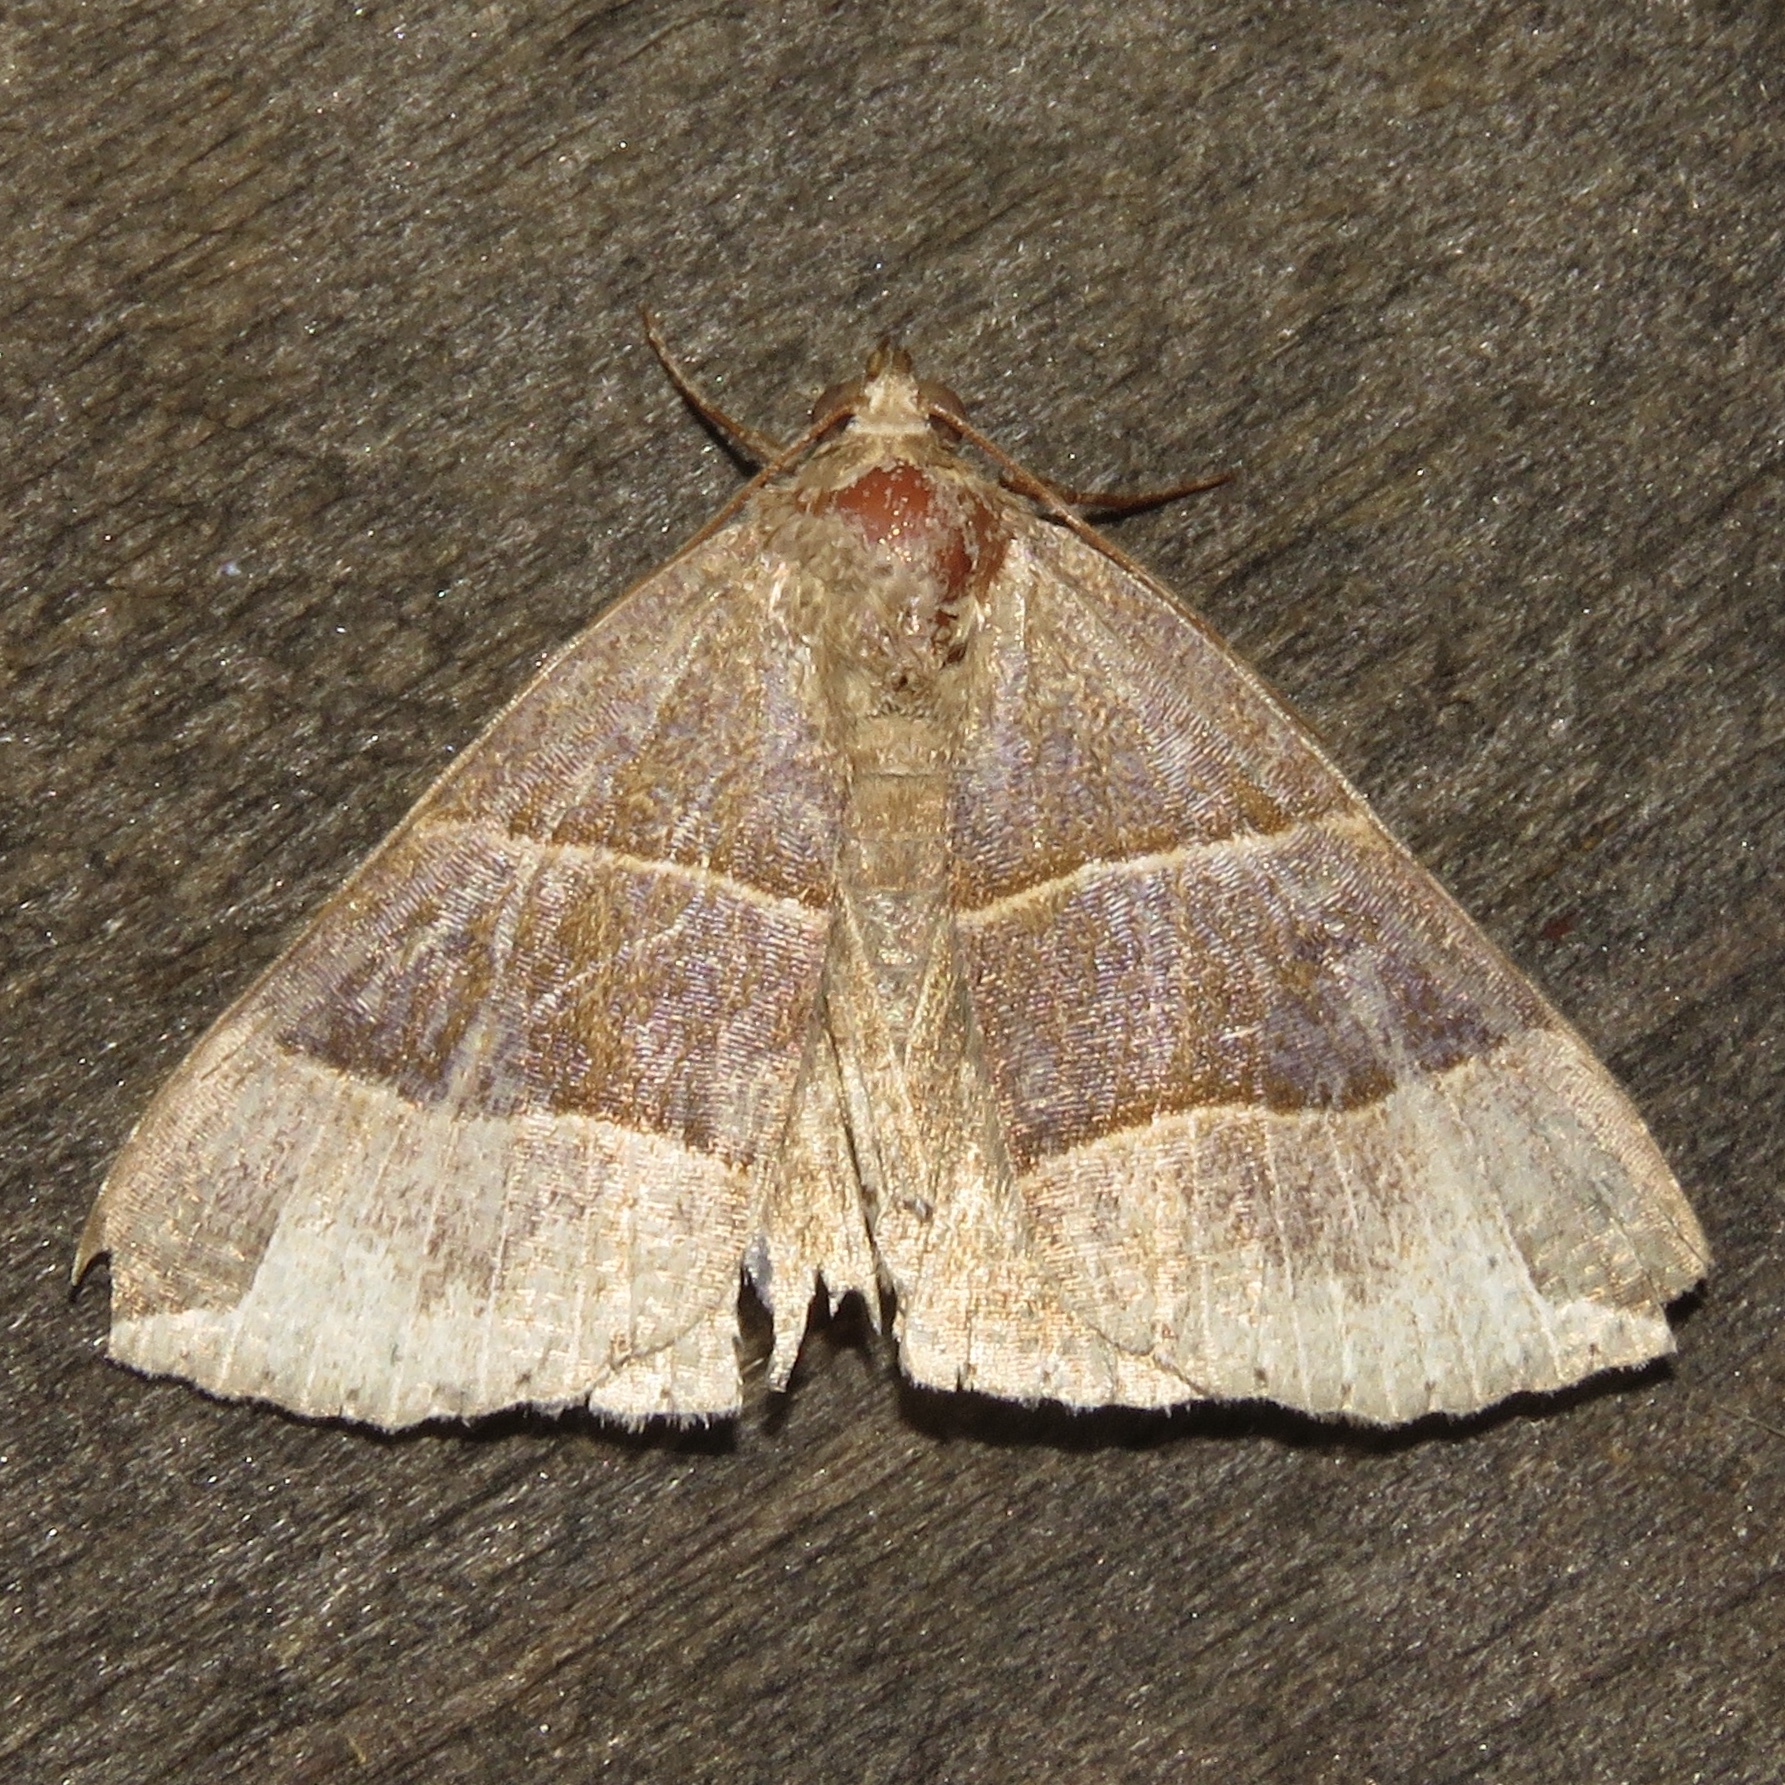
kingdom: Animalia
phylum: Arthropoda
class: Insecta
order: Lepidoptera
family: Erebidae
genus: Parallelia
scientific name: Parallelia bistriaris
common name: Maple looper moth
